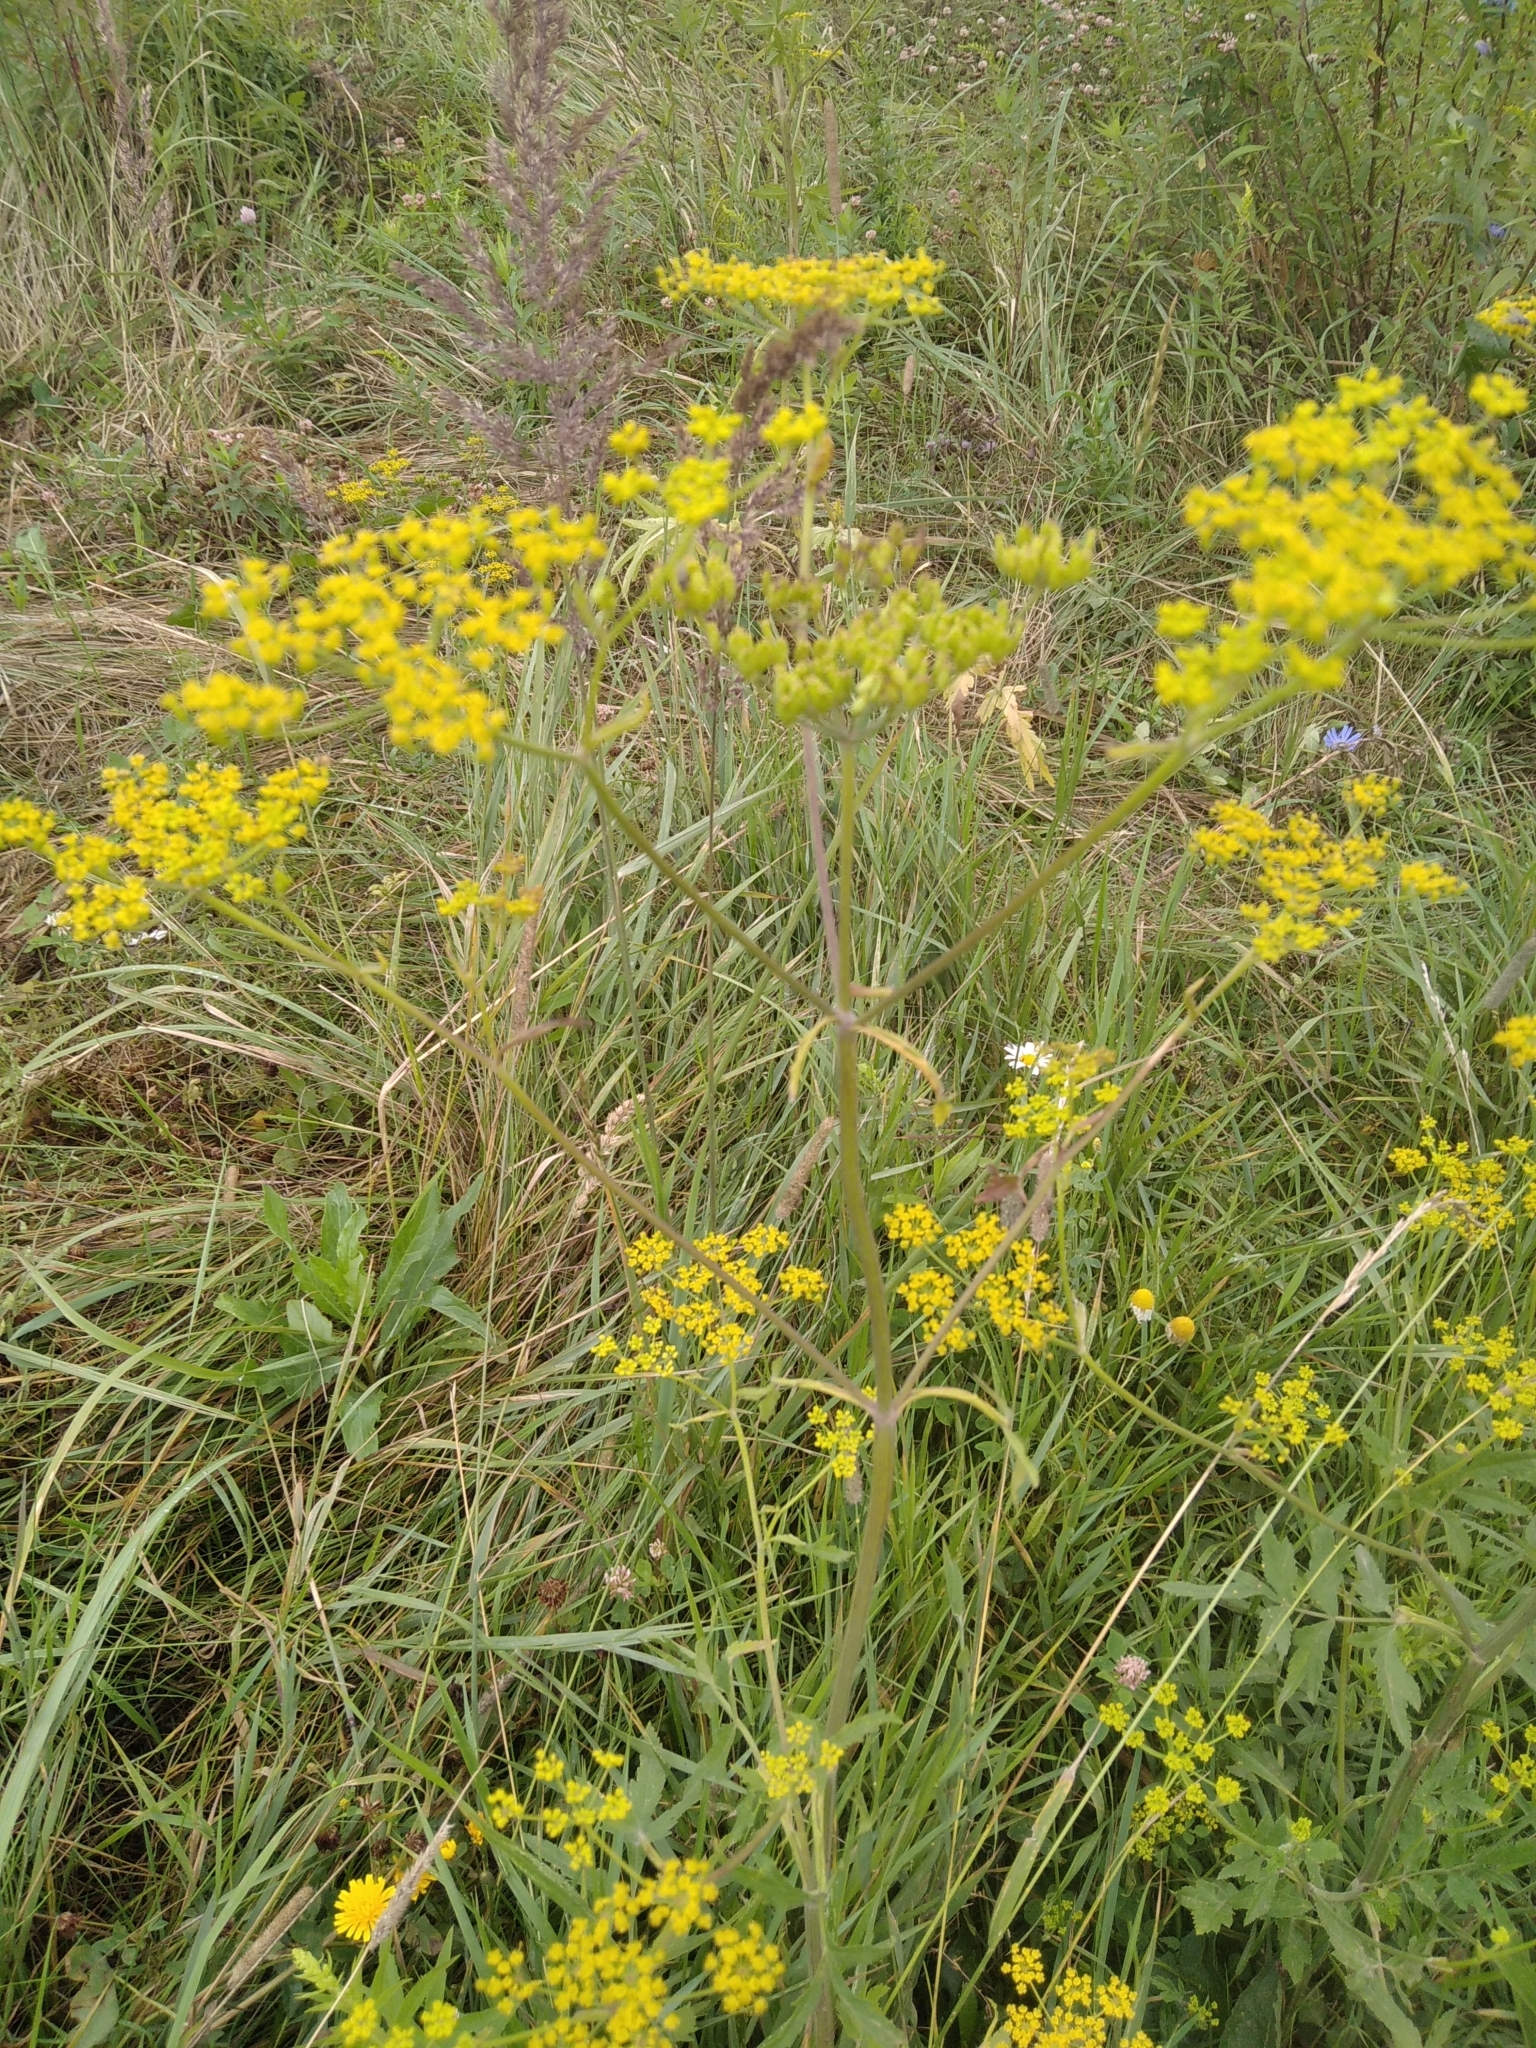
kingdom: Plantae
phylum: Tracheophyta
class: Magnoliopsida
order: Apiales
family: Apiaceae
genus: Pastinaca
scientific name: Pastinaca sativa
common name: Wild parsnip
